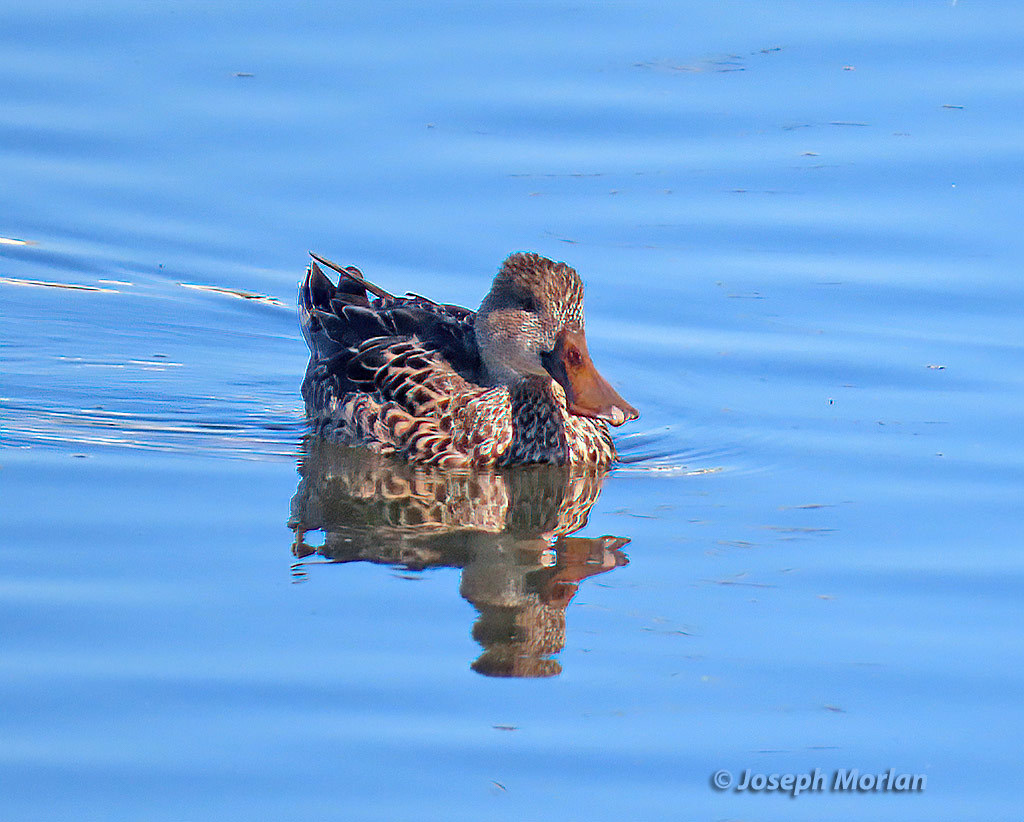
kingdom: Animalia
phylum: Chordata
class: Aves
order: Anseriformes
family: Anatidae
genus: Spatula
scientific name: Spatula clypeata
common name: Northern shoveler
